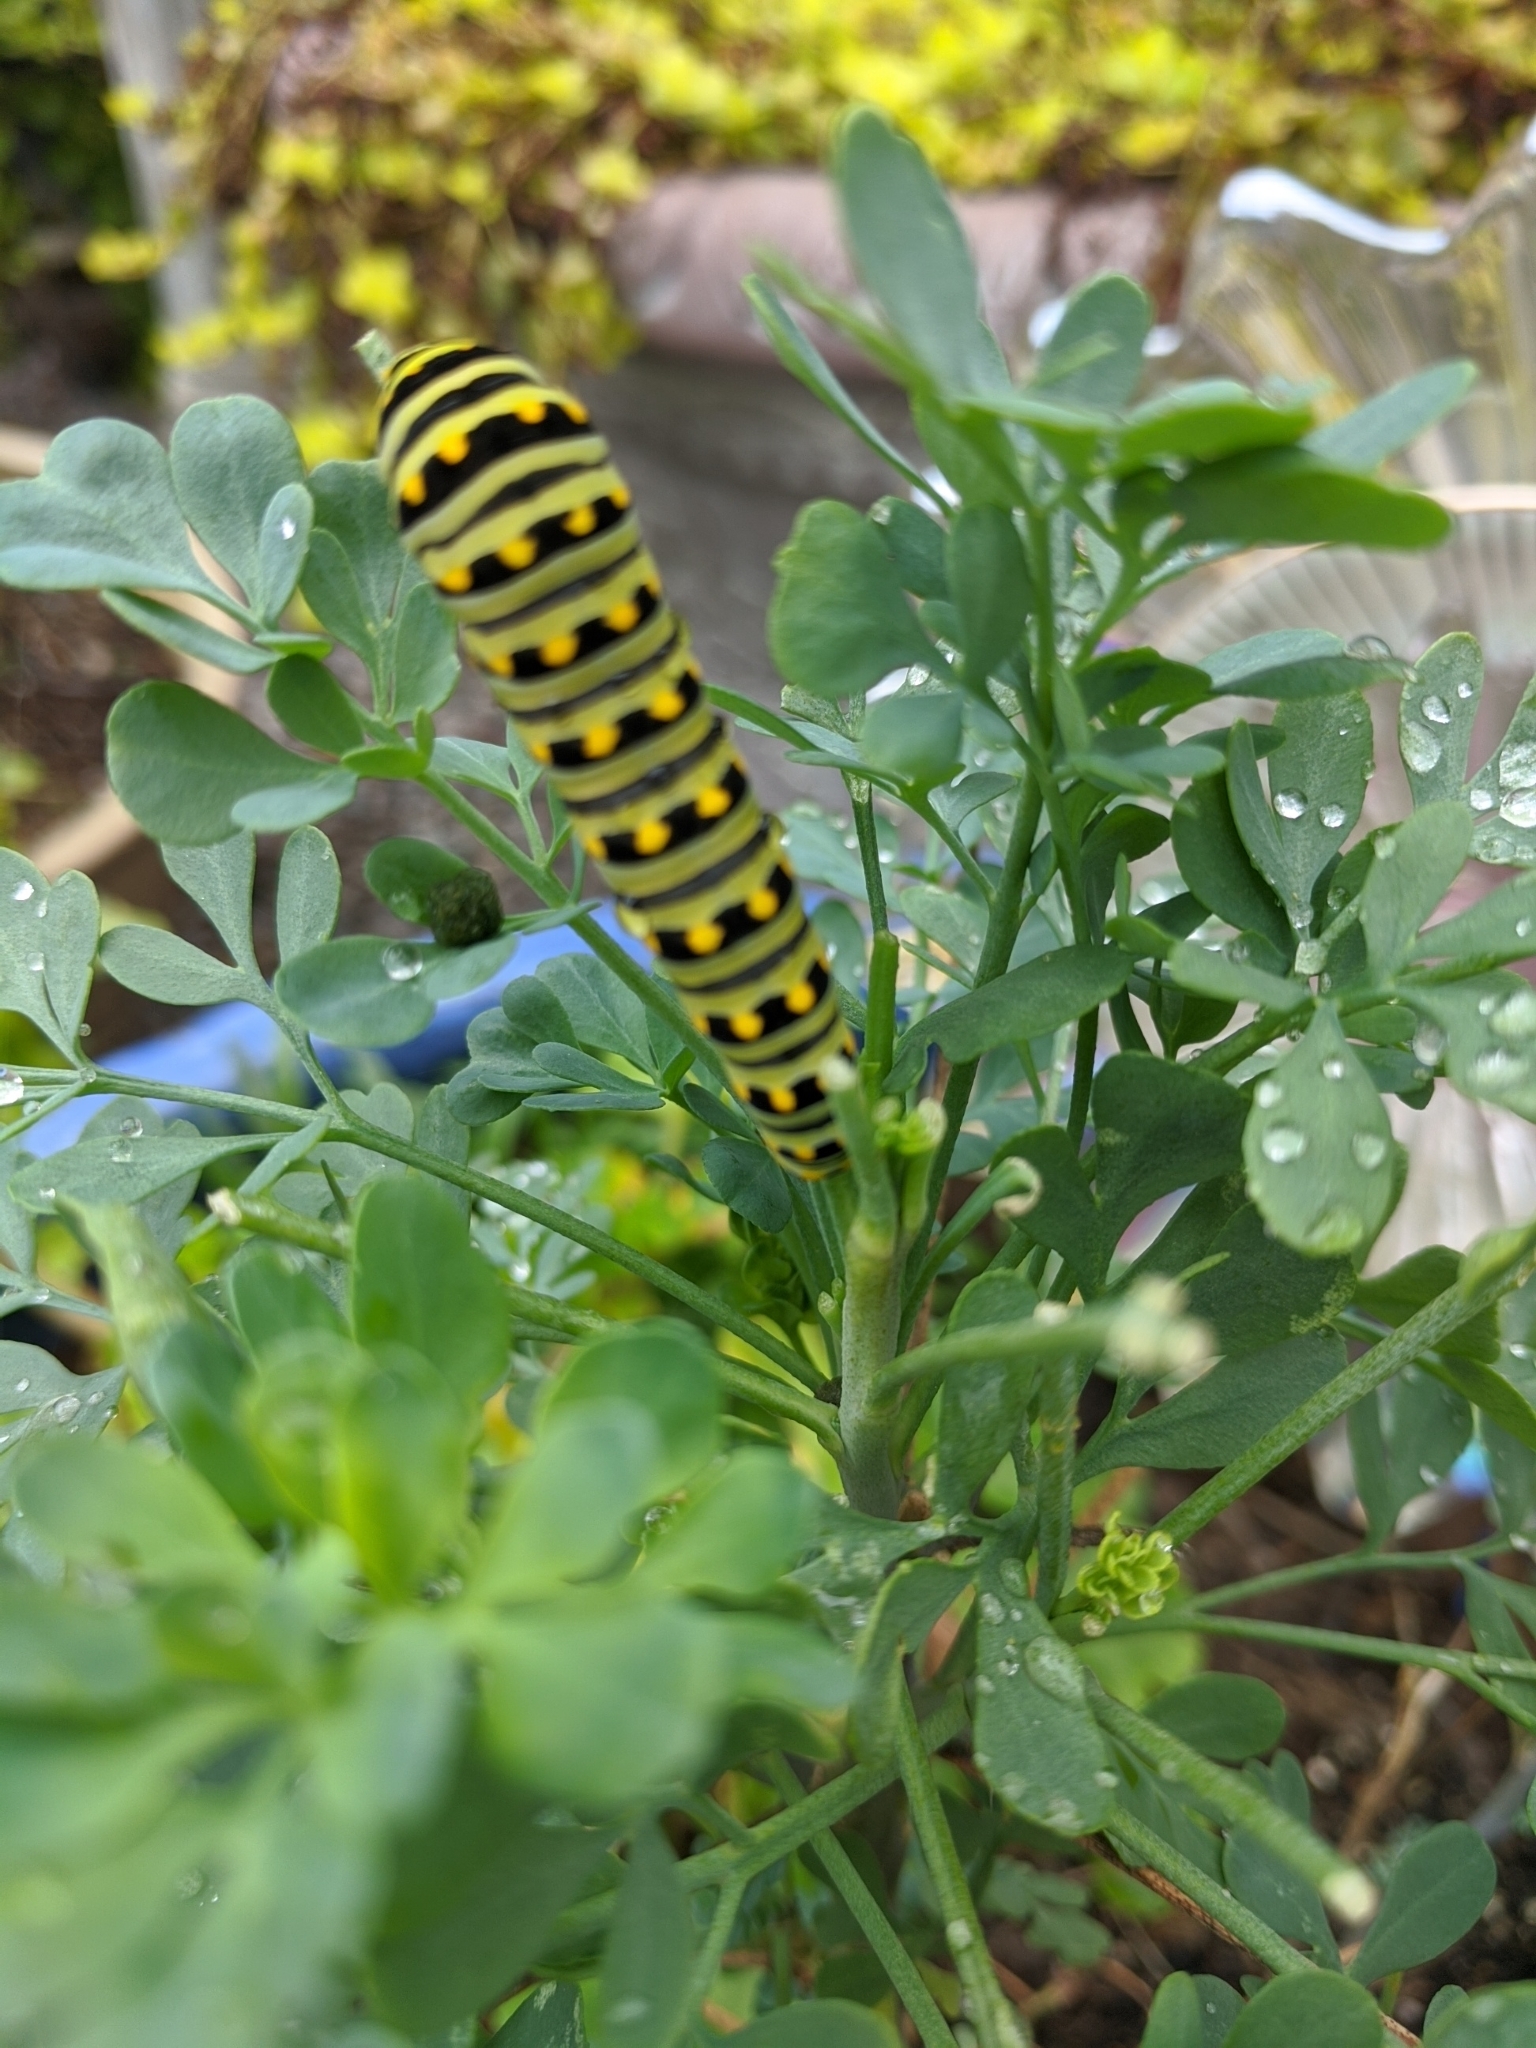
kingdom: Animalia
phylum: Arthropoda
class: Insecta
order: Lepidoptera
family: Papilionidae
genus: Papilio
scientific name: Papilio polyxenes
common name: Black swallowtail
